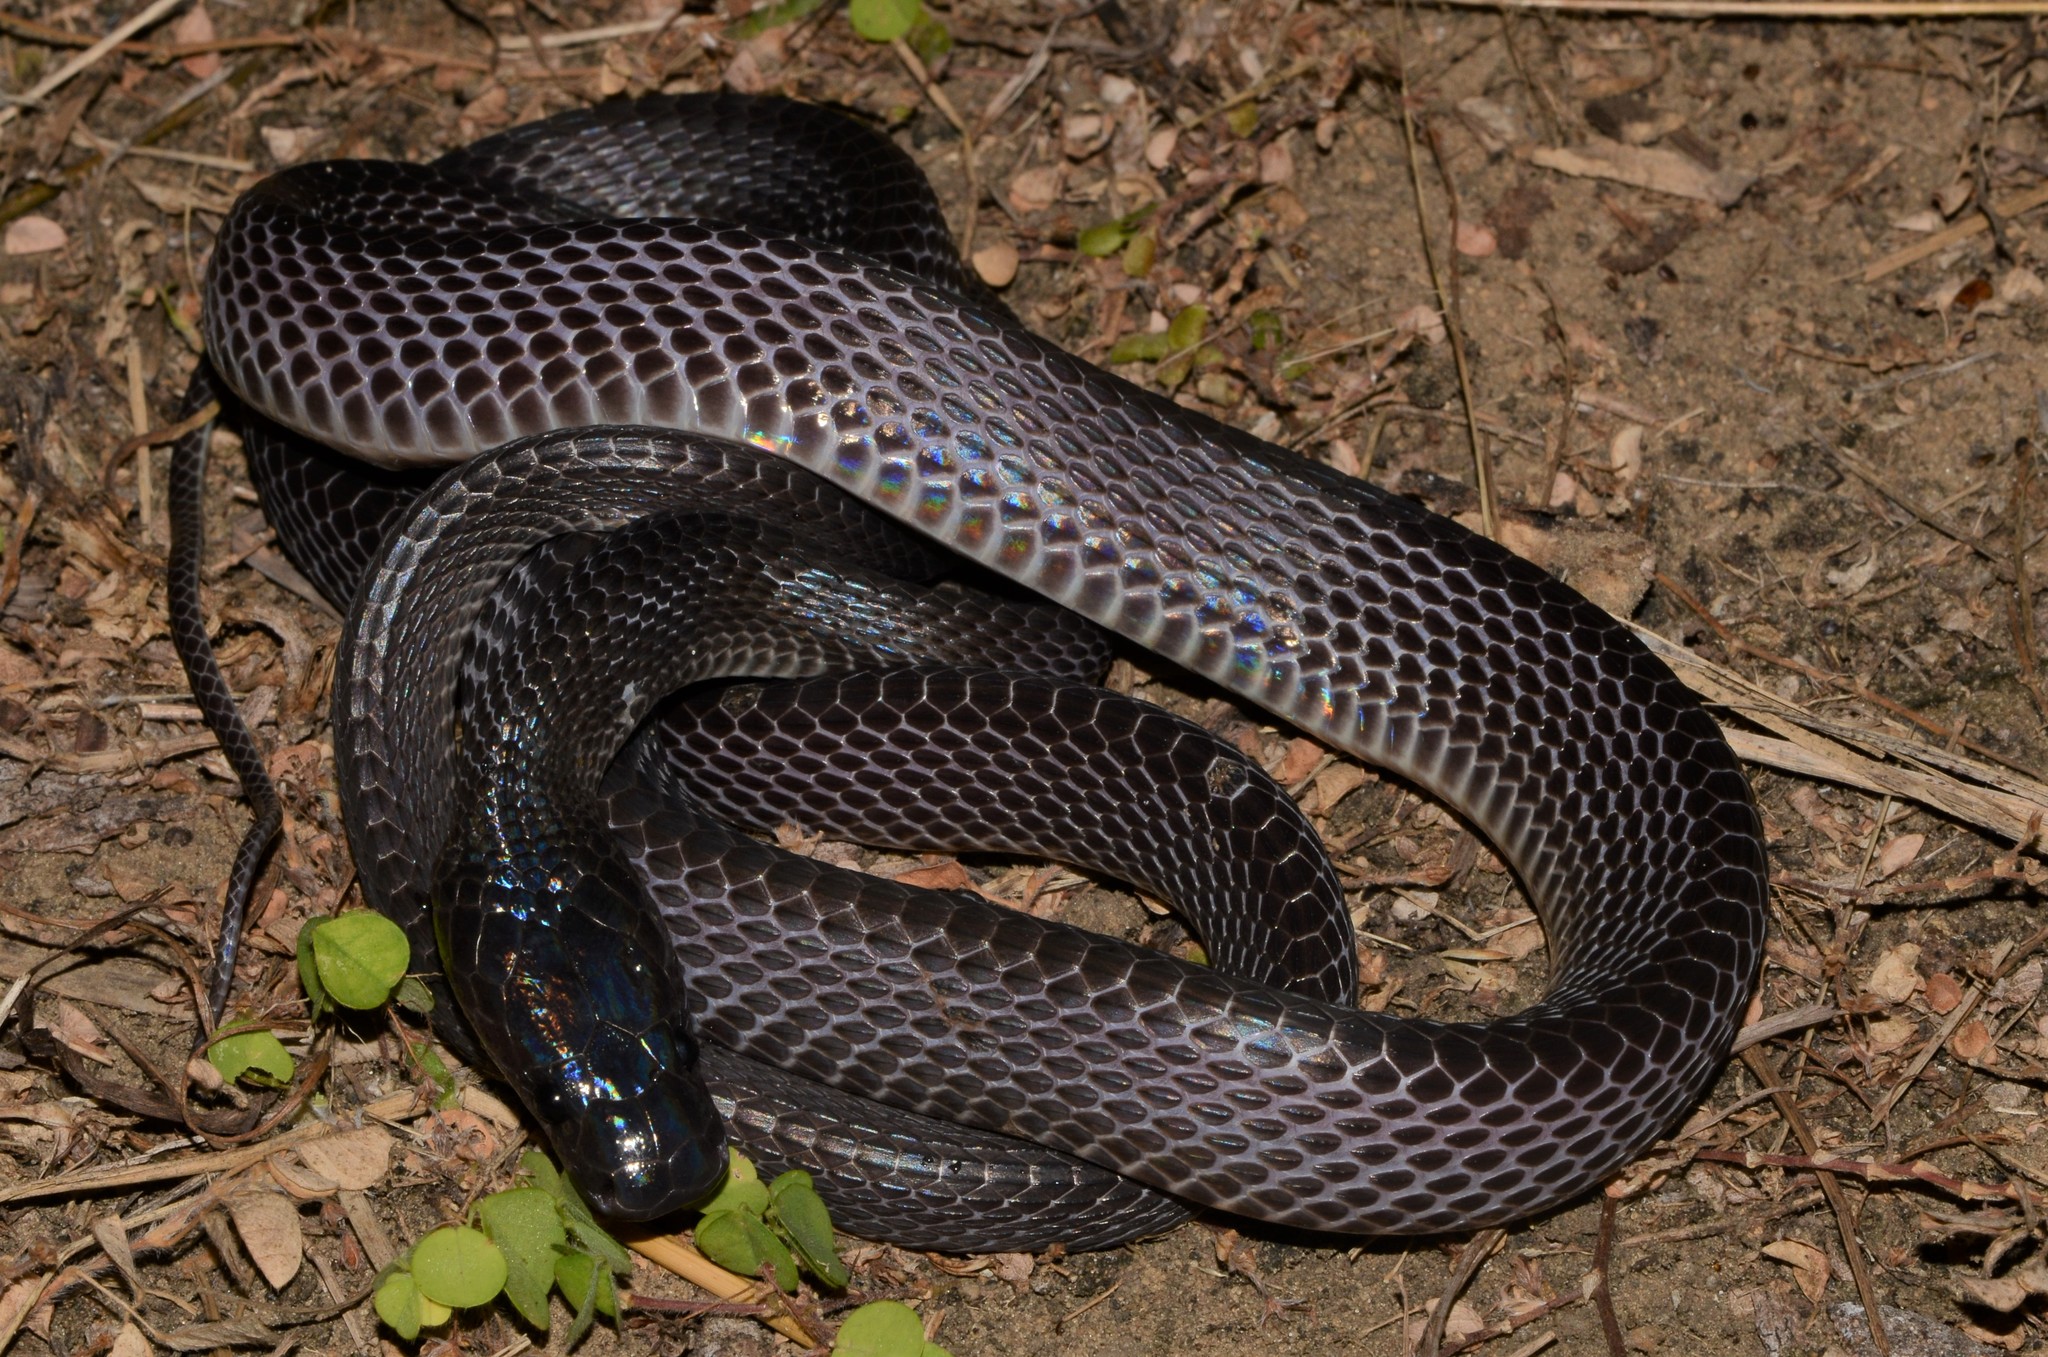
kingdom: Animalia
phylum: Chordata
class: Squamata
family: Lamprophiidae
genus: Mehelya
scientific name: Mehelya poensis
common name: Western forest file snake
